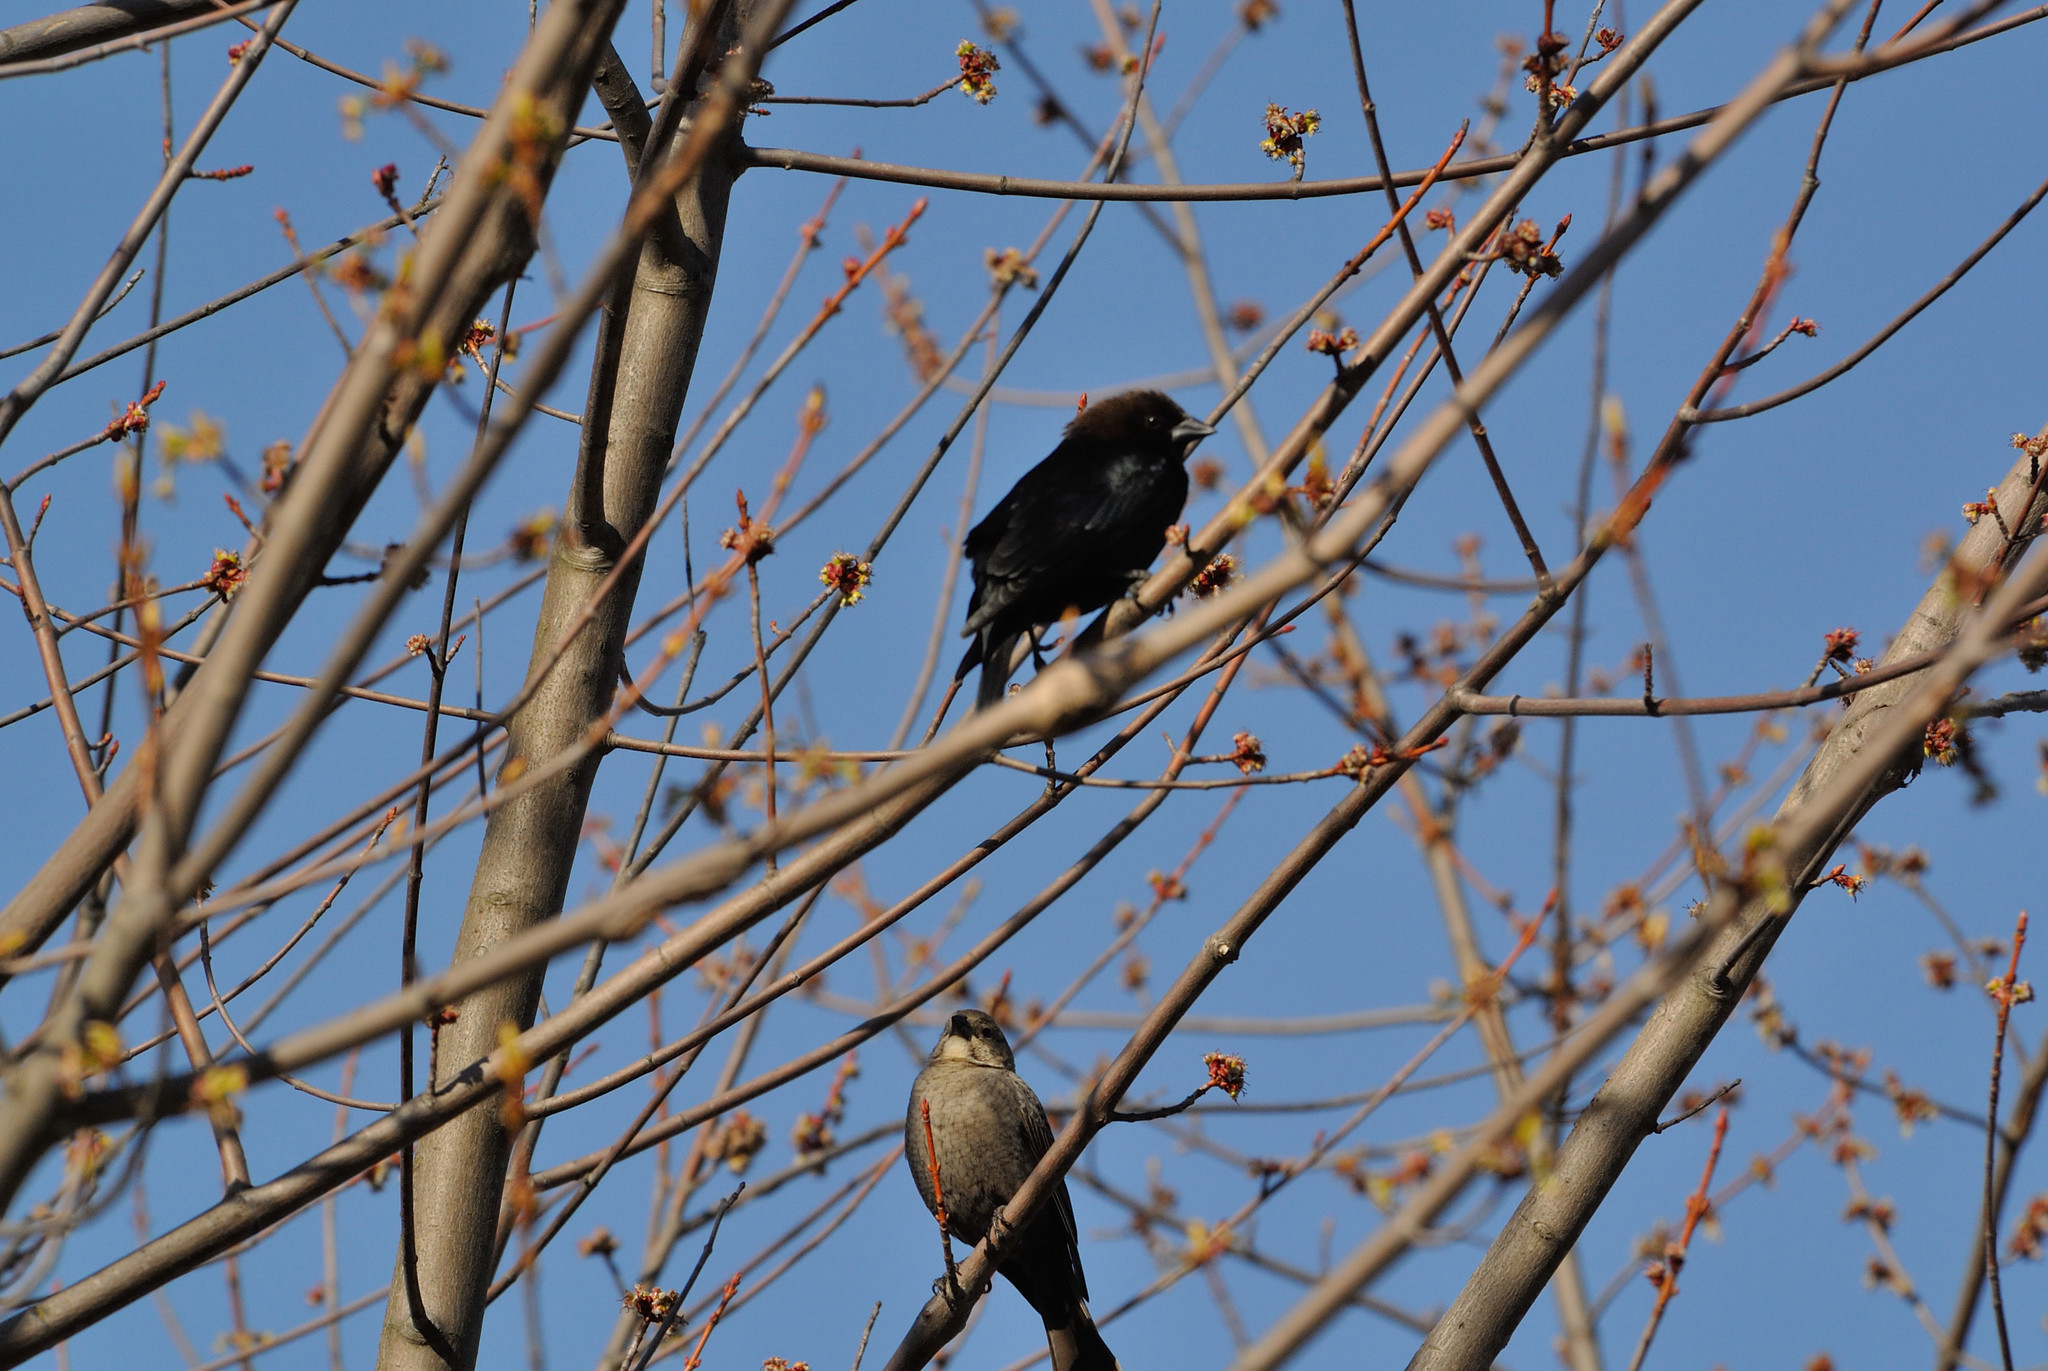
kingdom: Animalia
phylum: Chordata
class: Aves
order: Passeriformes
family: Icteridae
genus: Molothrus
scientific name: Molothrus ater
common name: Brown-headed cowbird
